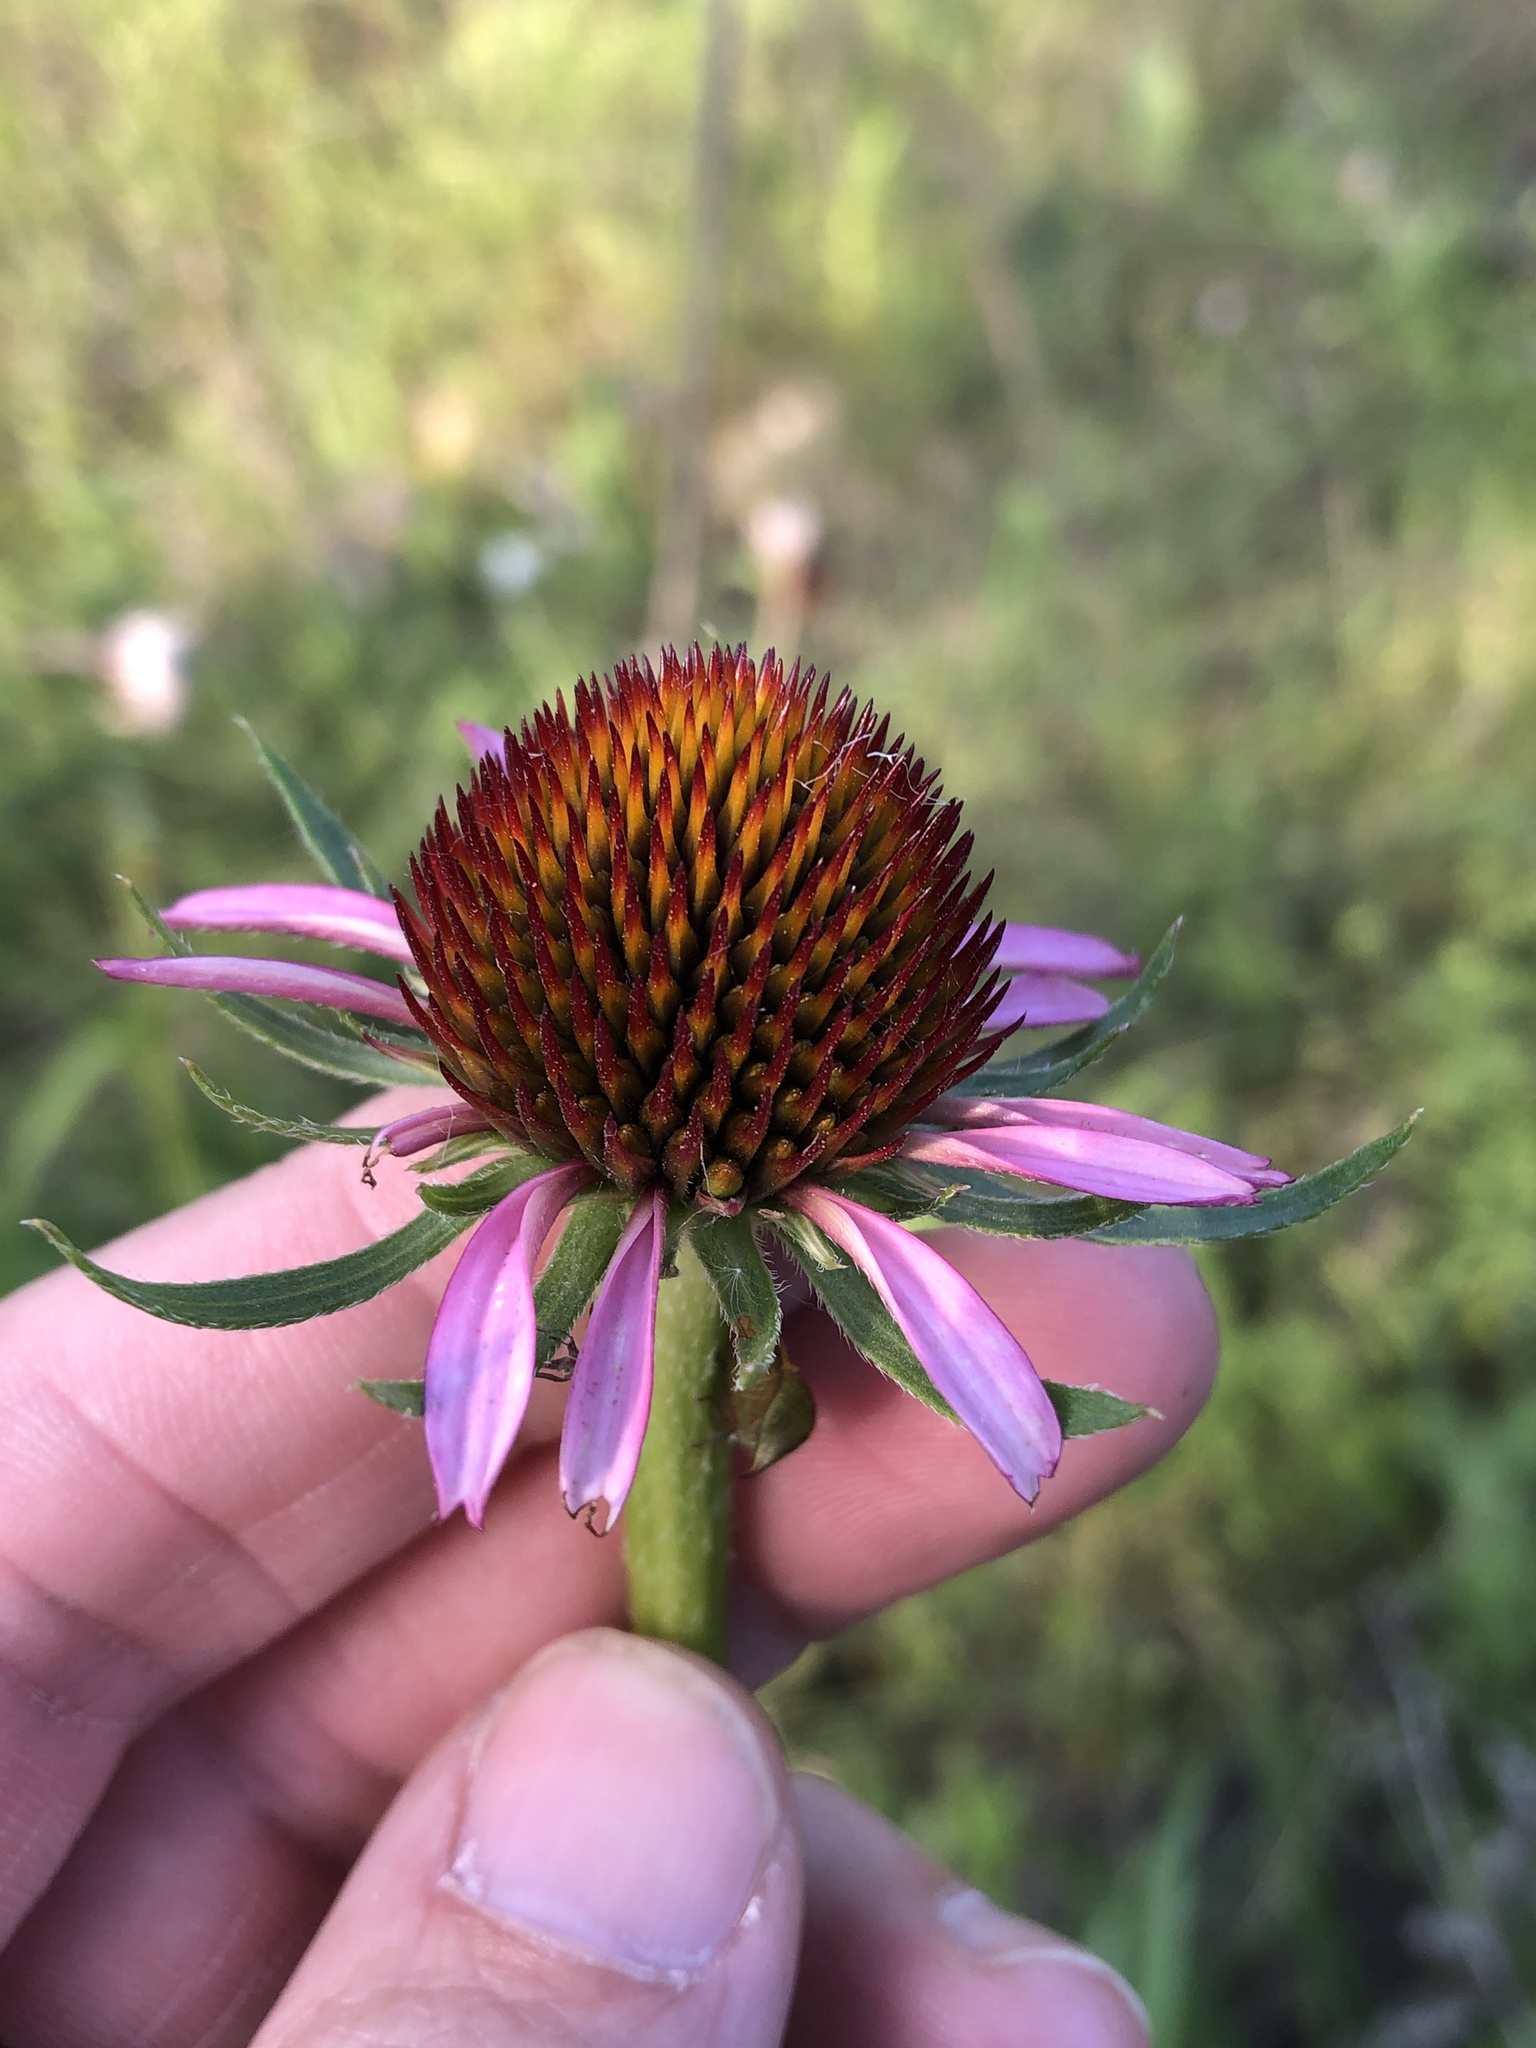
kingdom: Plantae
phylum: Tracheophyta
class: Magnoliopsida
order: Asterales
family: Asteraceae
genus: Echinacea
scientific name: Echinacea atrorubens
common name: Topeka purple-coneflower
